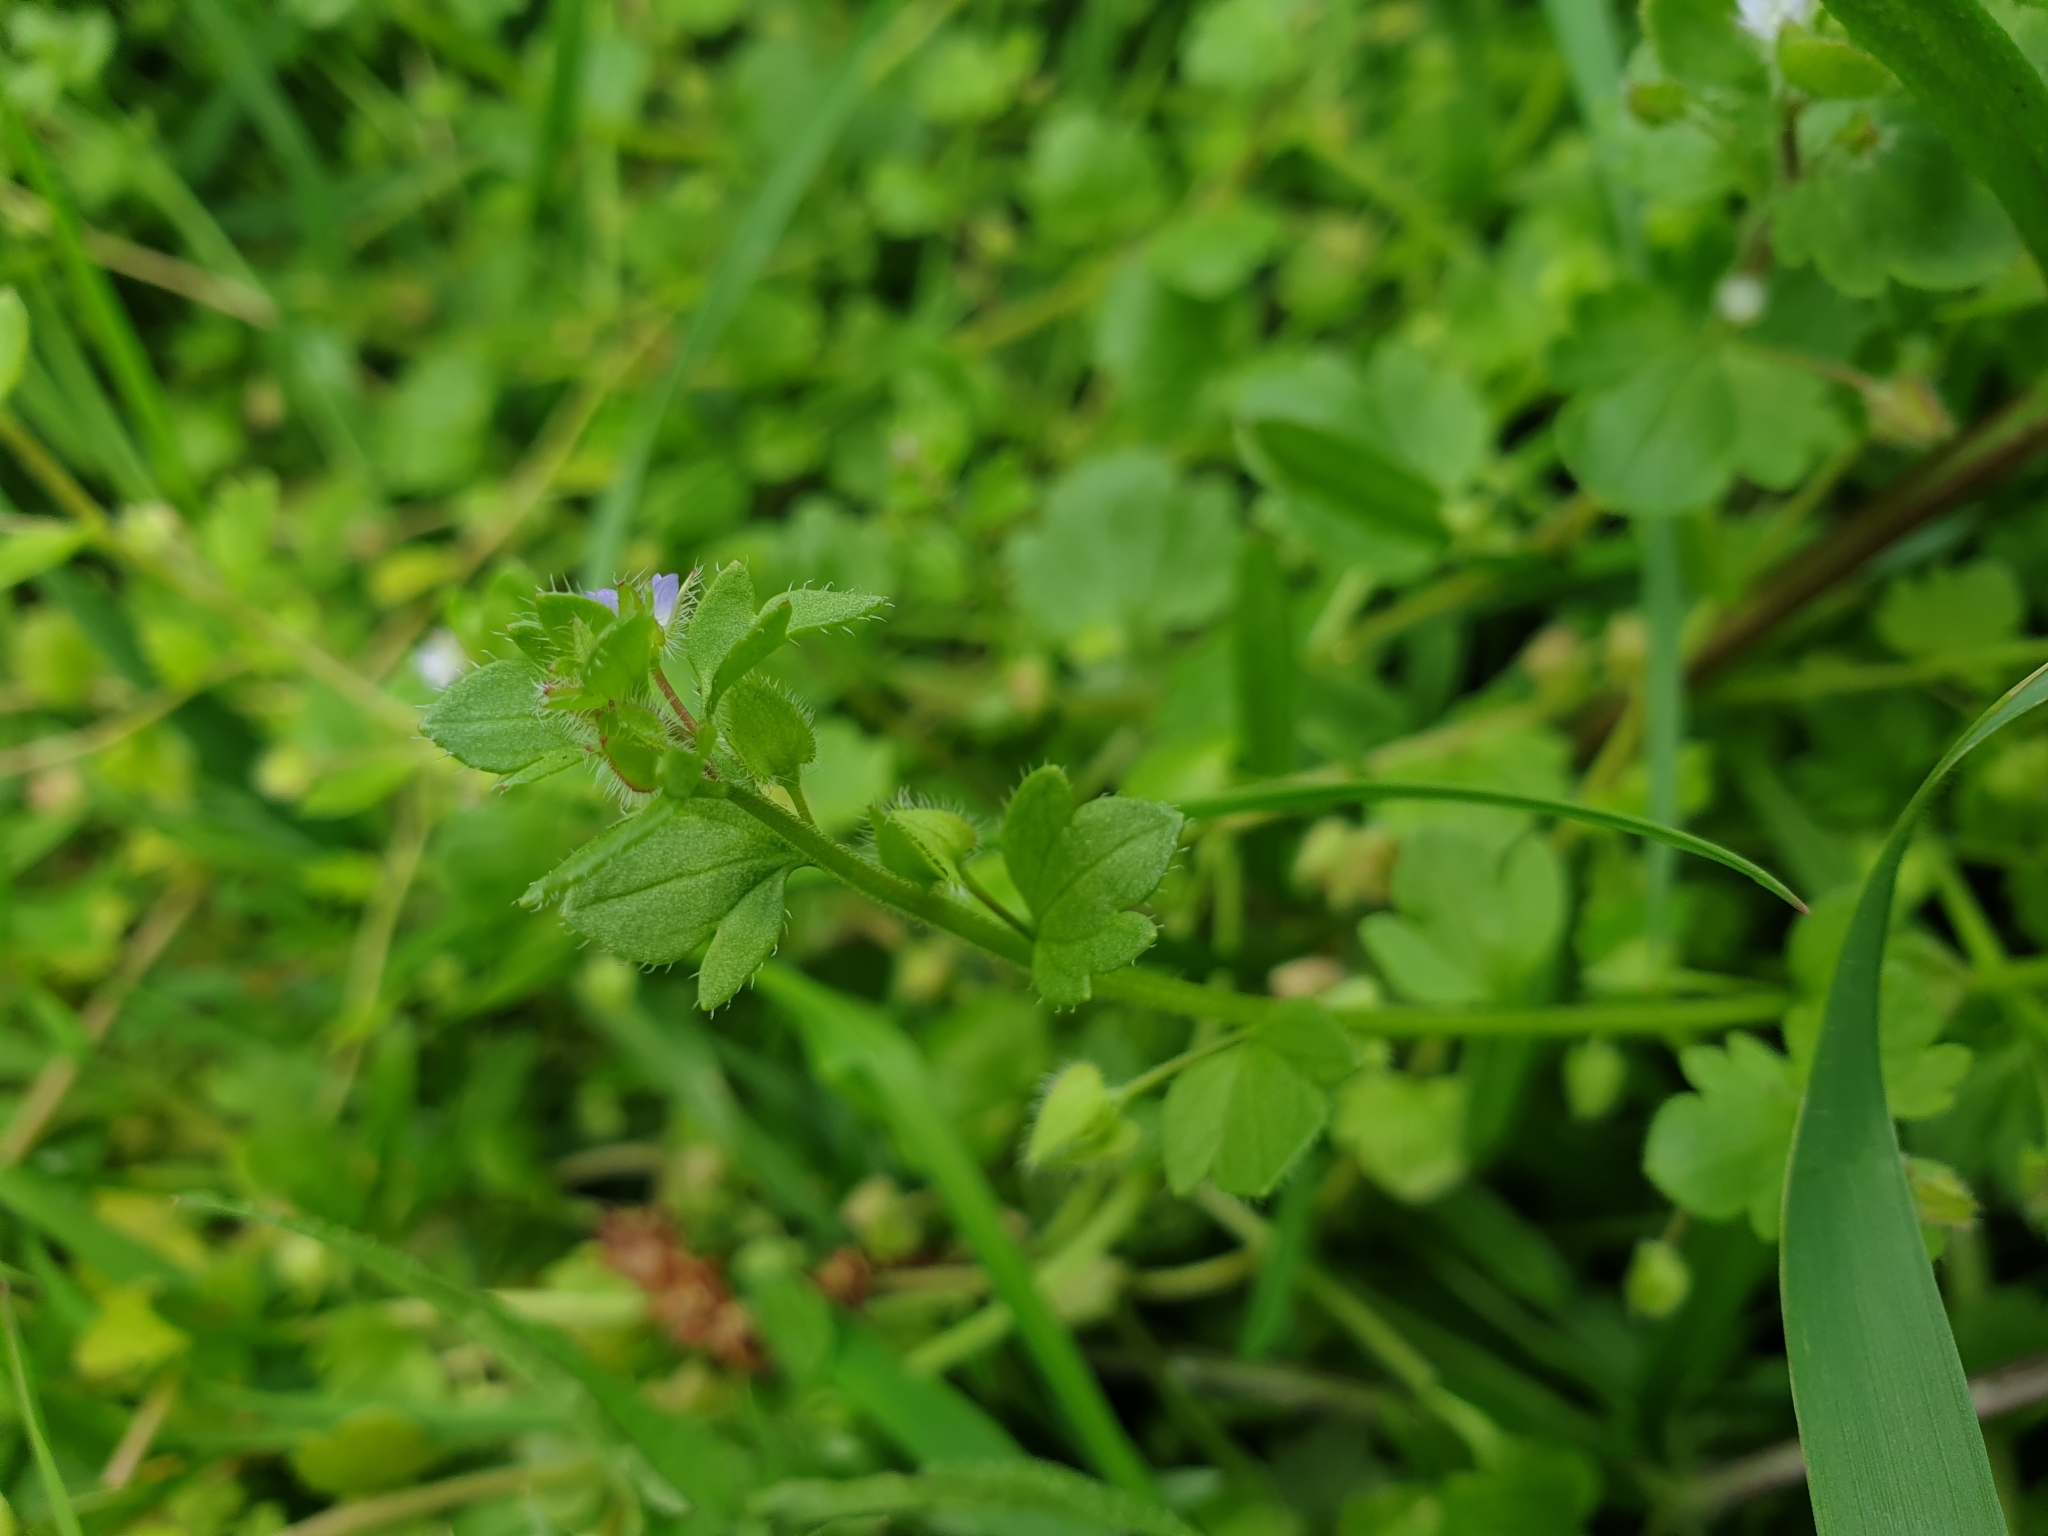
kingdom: Plantae
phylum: Tracheophyta
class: Magnoliopsida
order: Lamiales
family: Plantaginaceae
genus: Veronica
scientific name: Veronica sublobata
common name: False ivy-leaved speedwell
